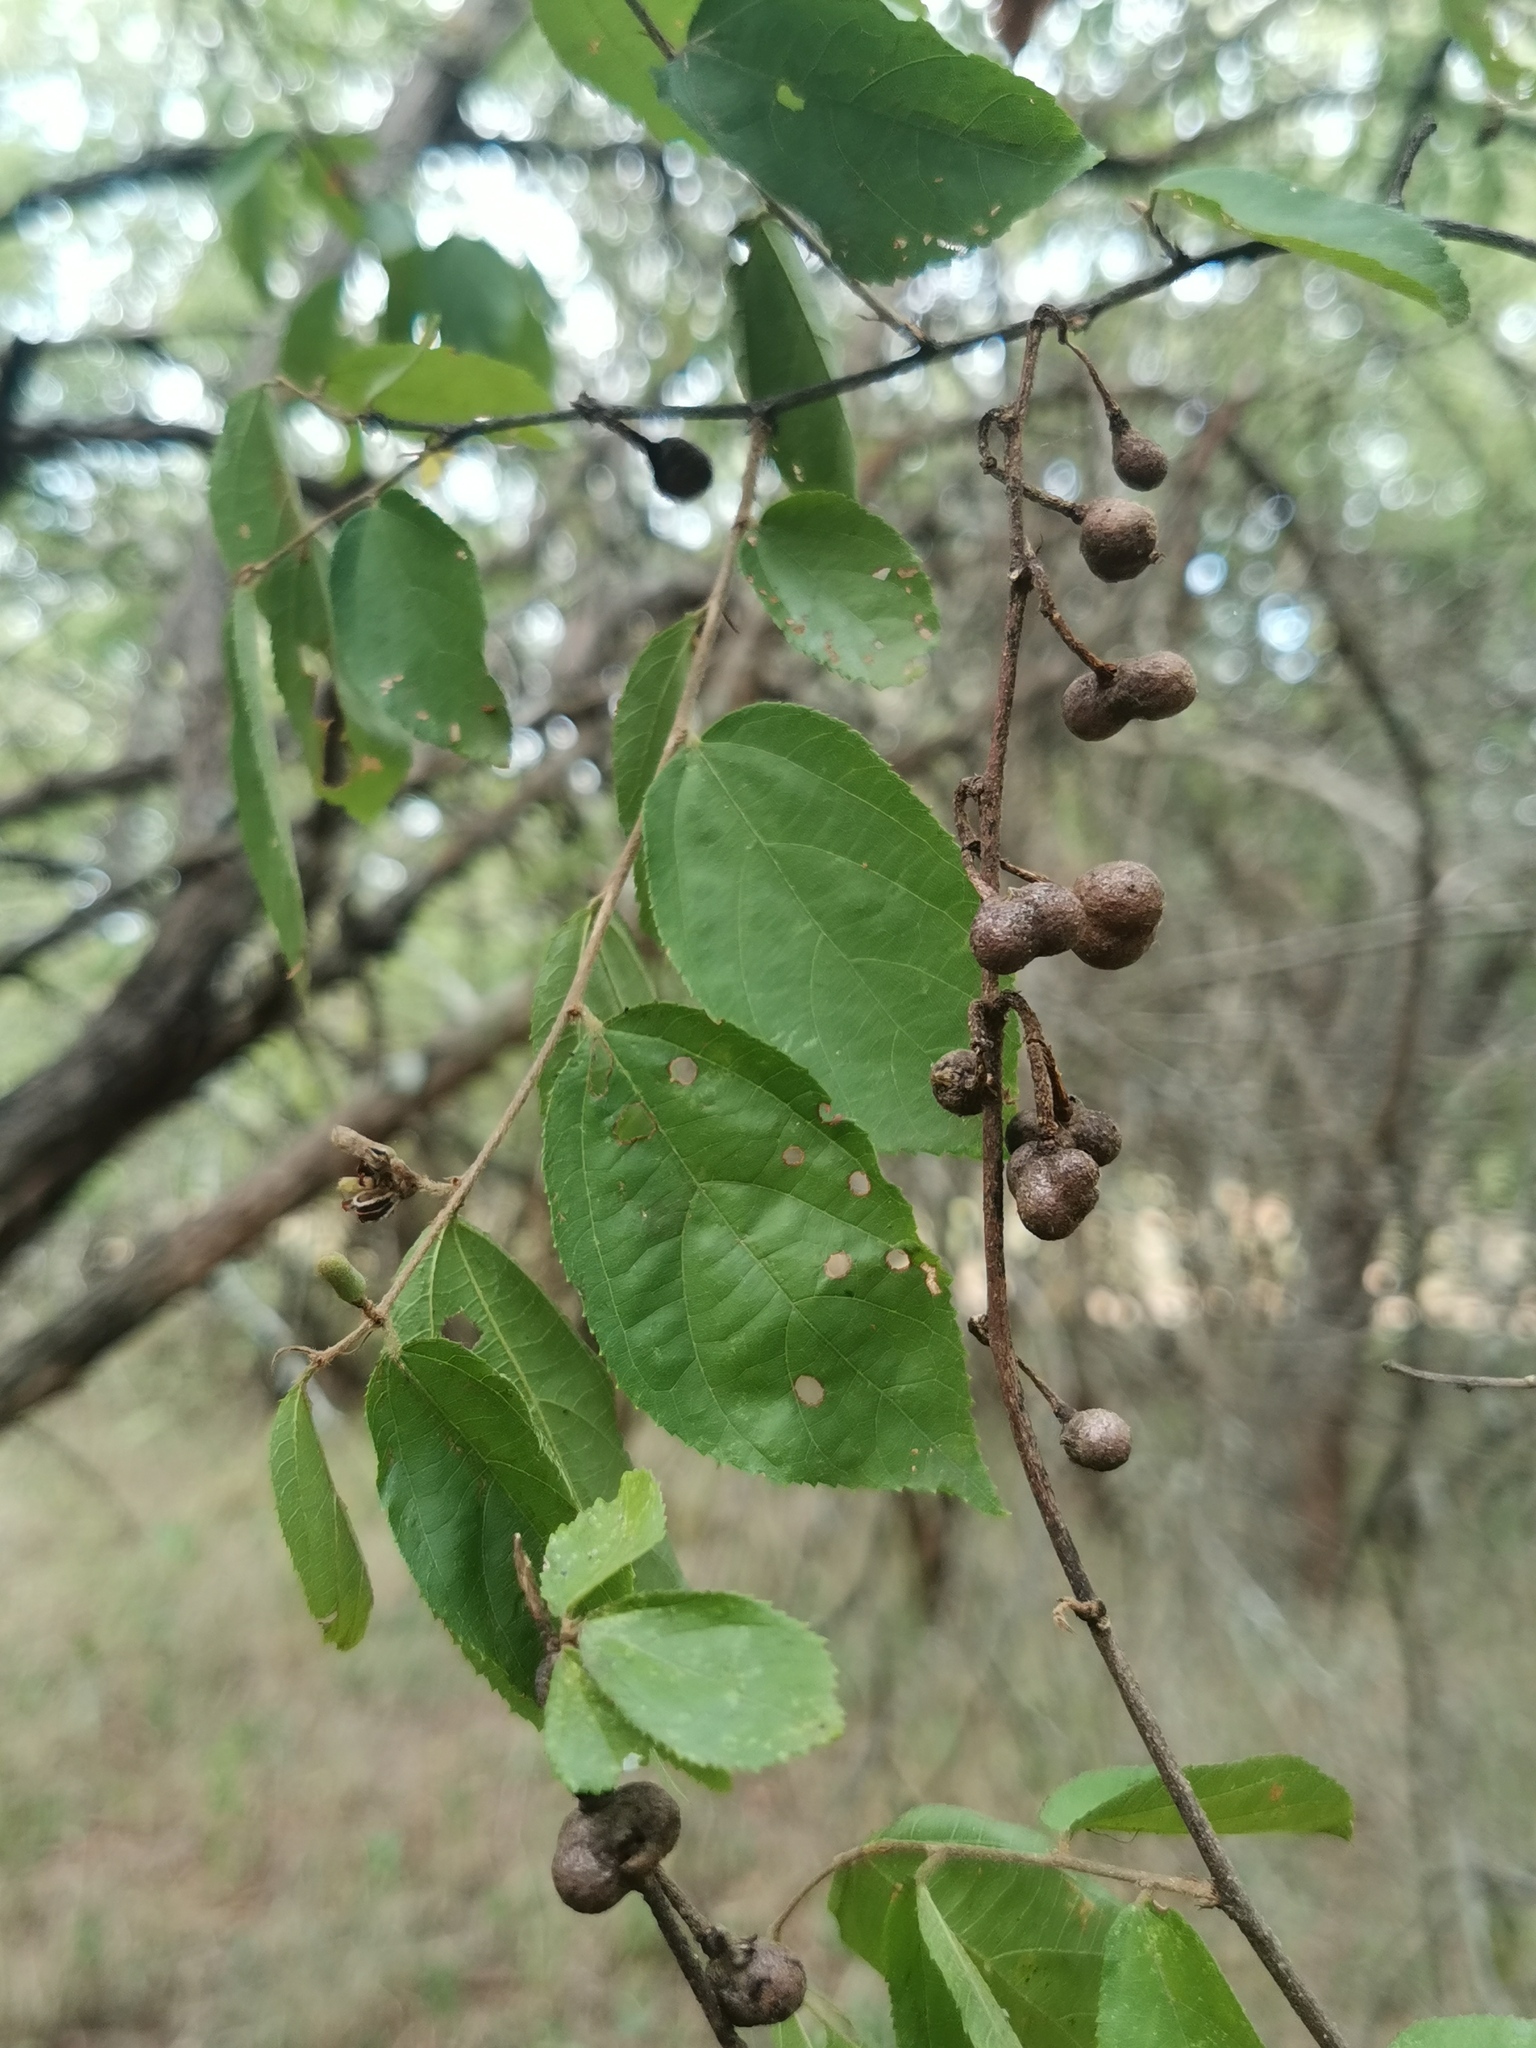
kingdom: Plantae
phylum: Tracheophyta
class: Magnoliopsida
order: Malvales
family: Malvaceae
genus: Grewia
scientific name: Grewia flavescens
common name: Sandpaper raisin
